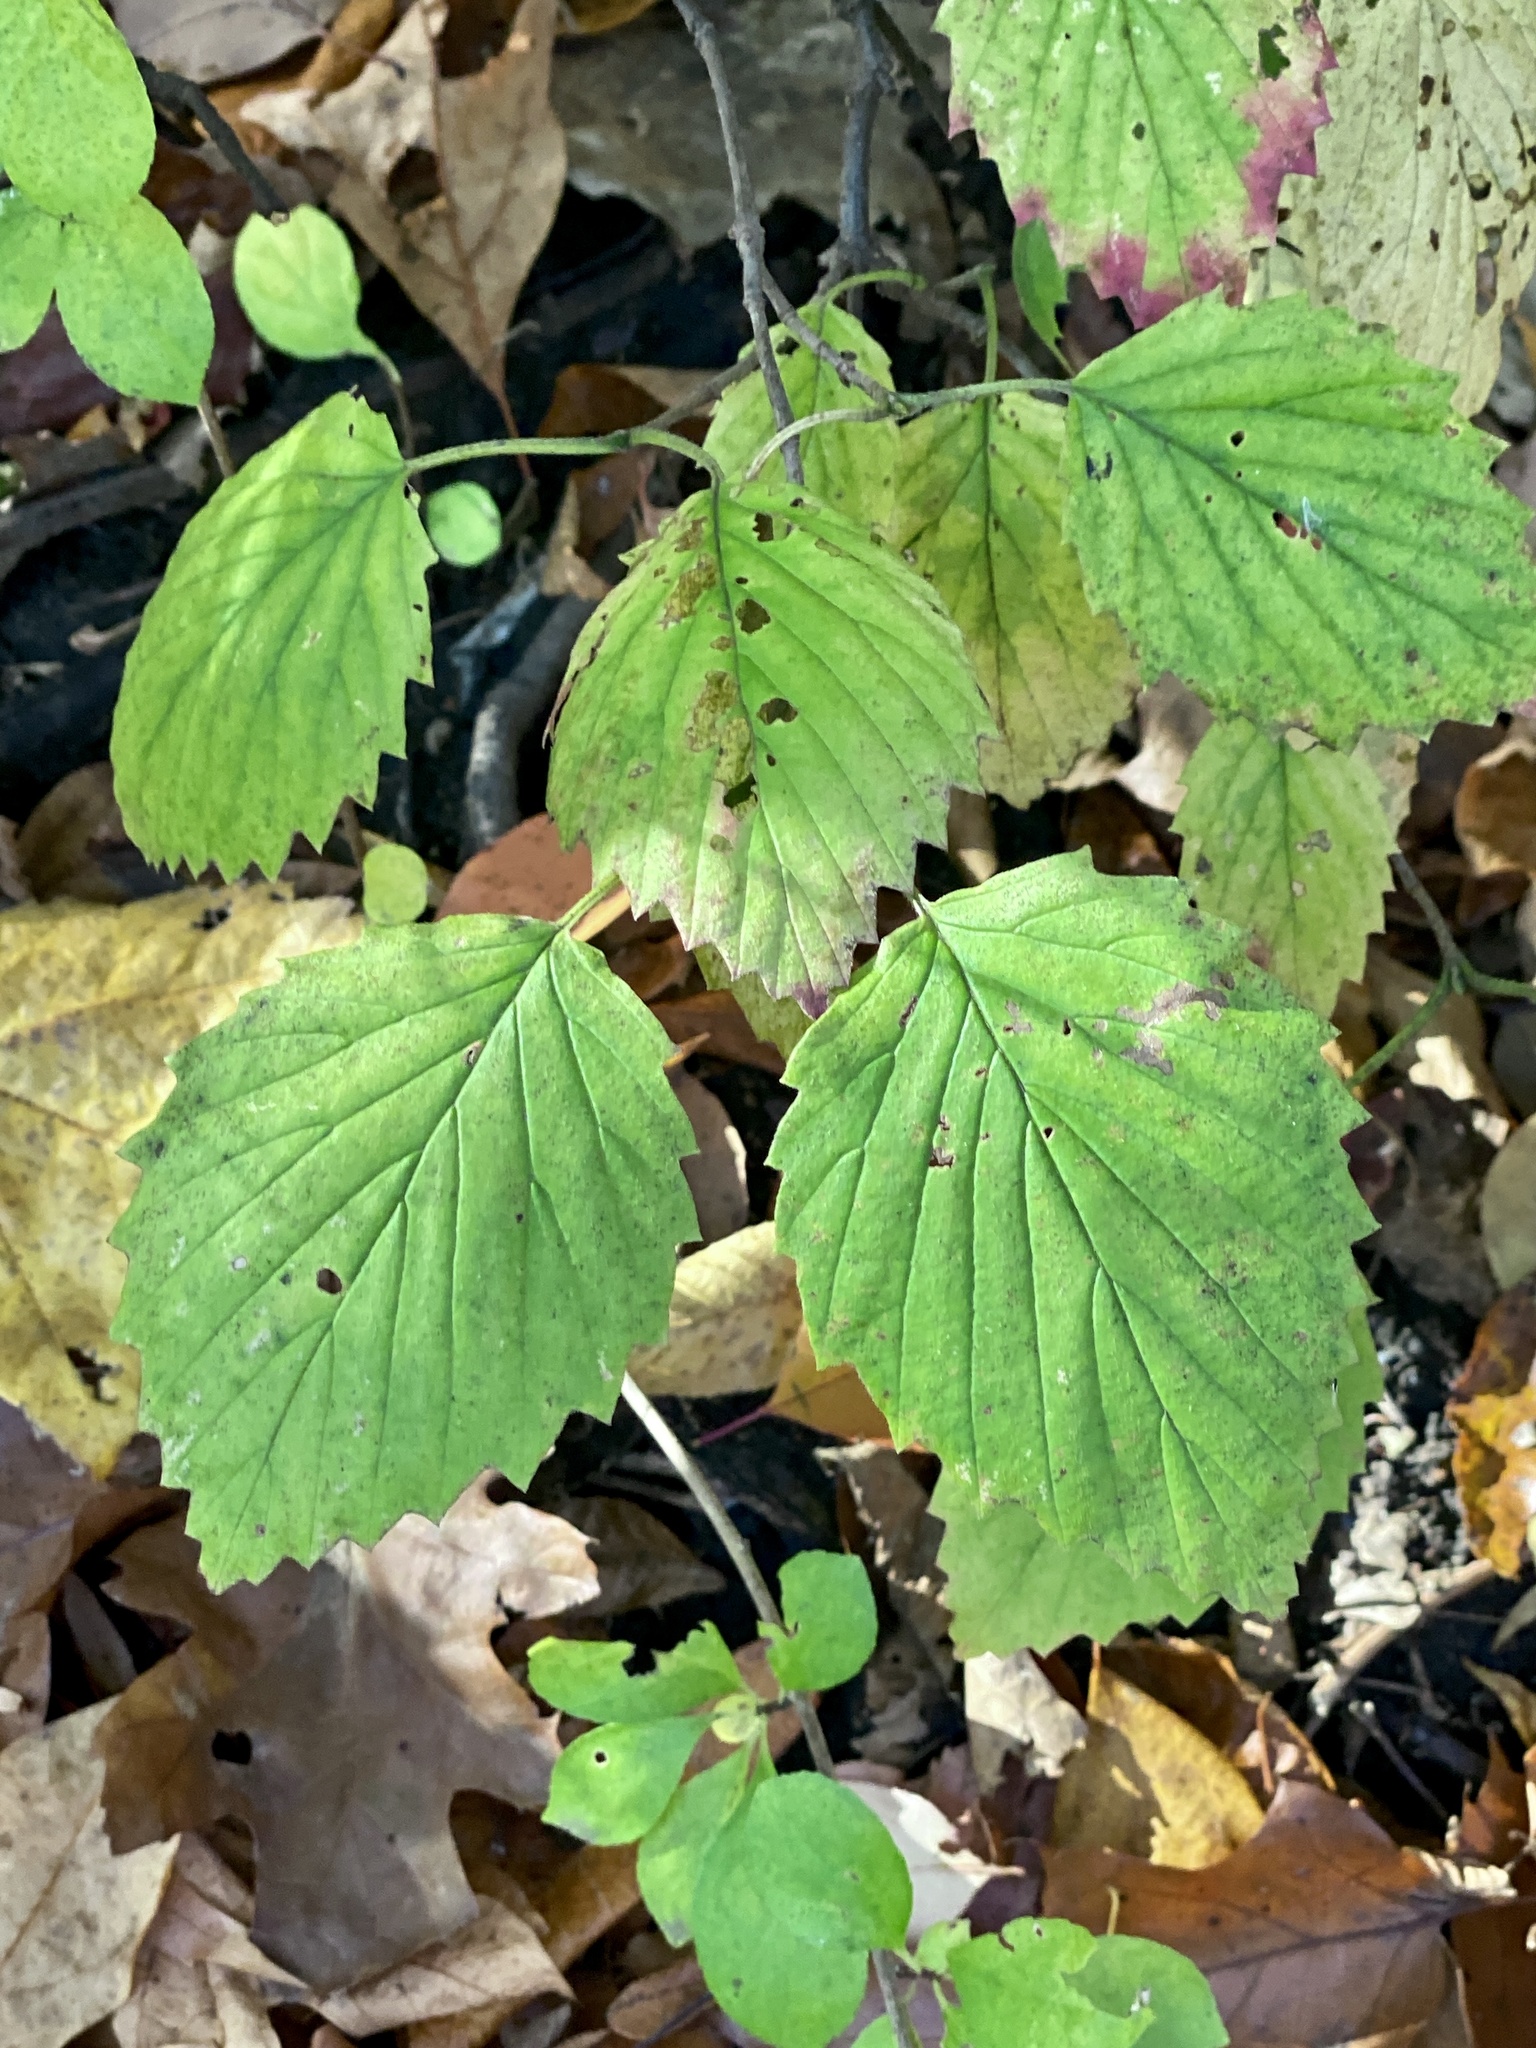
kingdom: Plantae
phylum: Tracheophyta
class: Magnoliopsida
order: Dipsacales
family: Viburnaceae
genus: Viburnum
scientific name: Viburnum dentatum
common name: Arrow-wood
